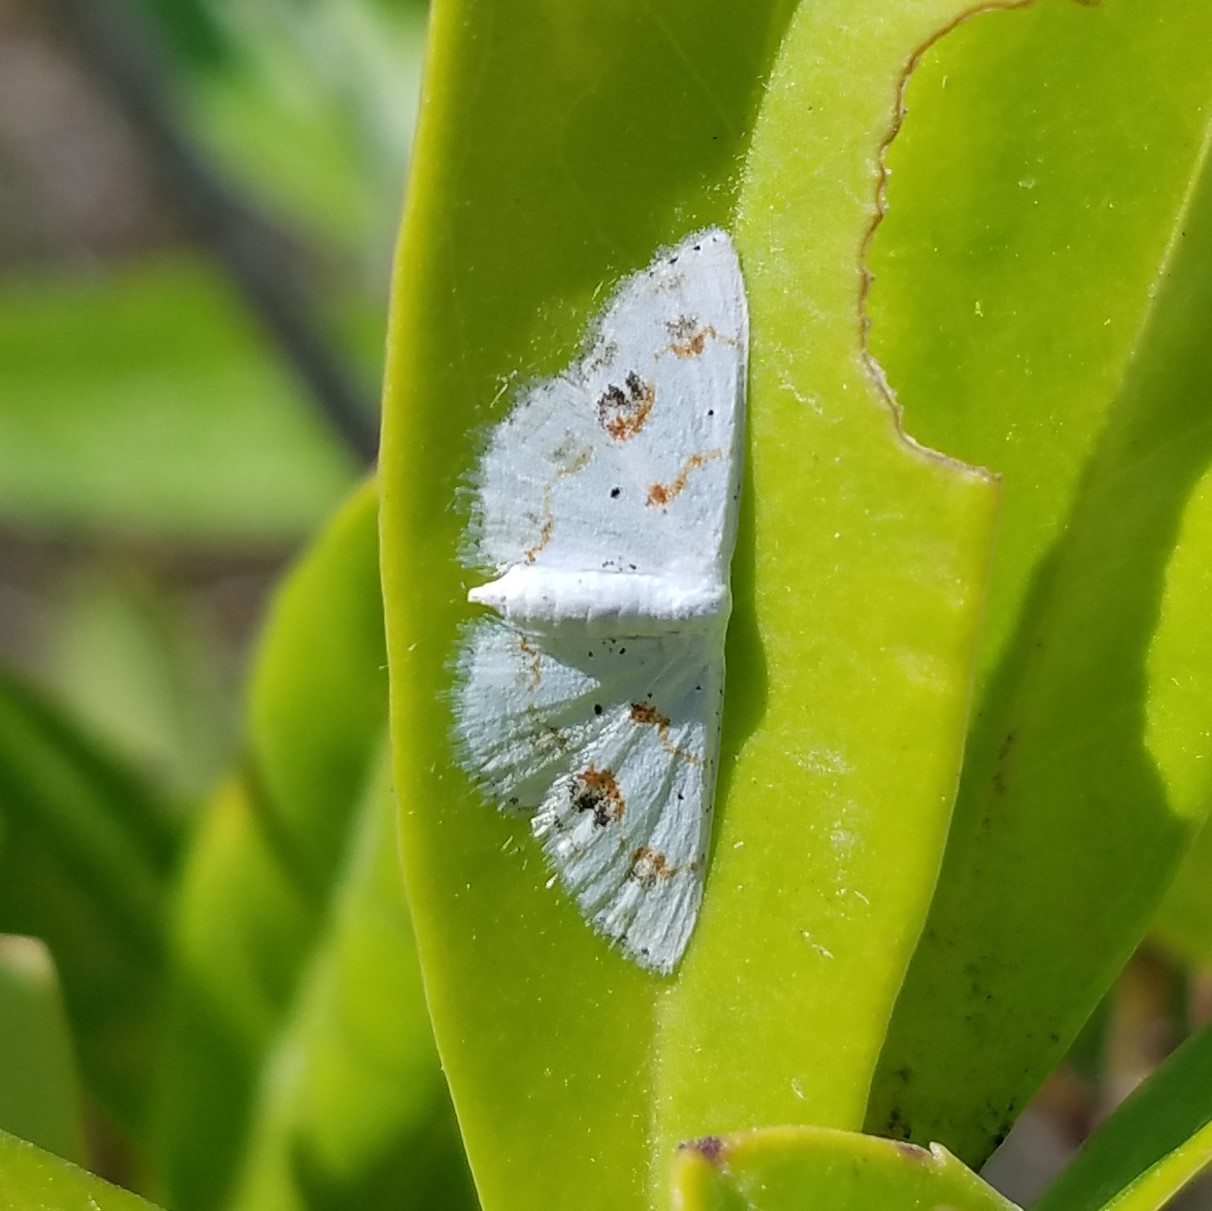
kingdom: Animalia
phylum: Arthropoda
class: Insecta
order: Lepidoptera
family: Geometridae
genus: Scopula
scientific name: Scopula lautaria
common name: Small frosted wave moth
